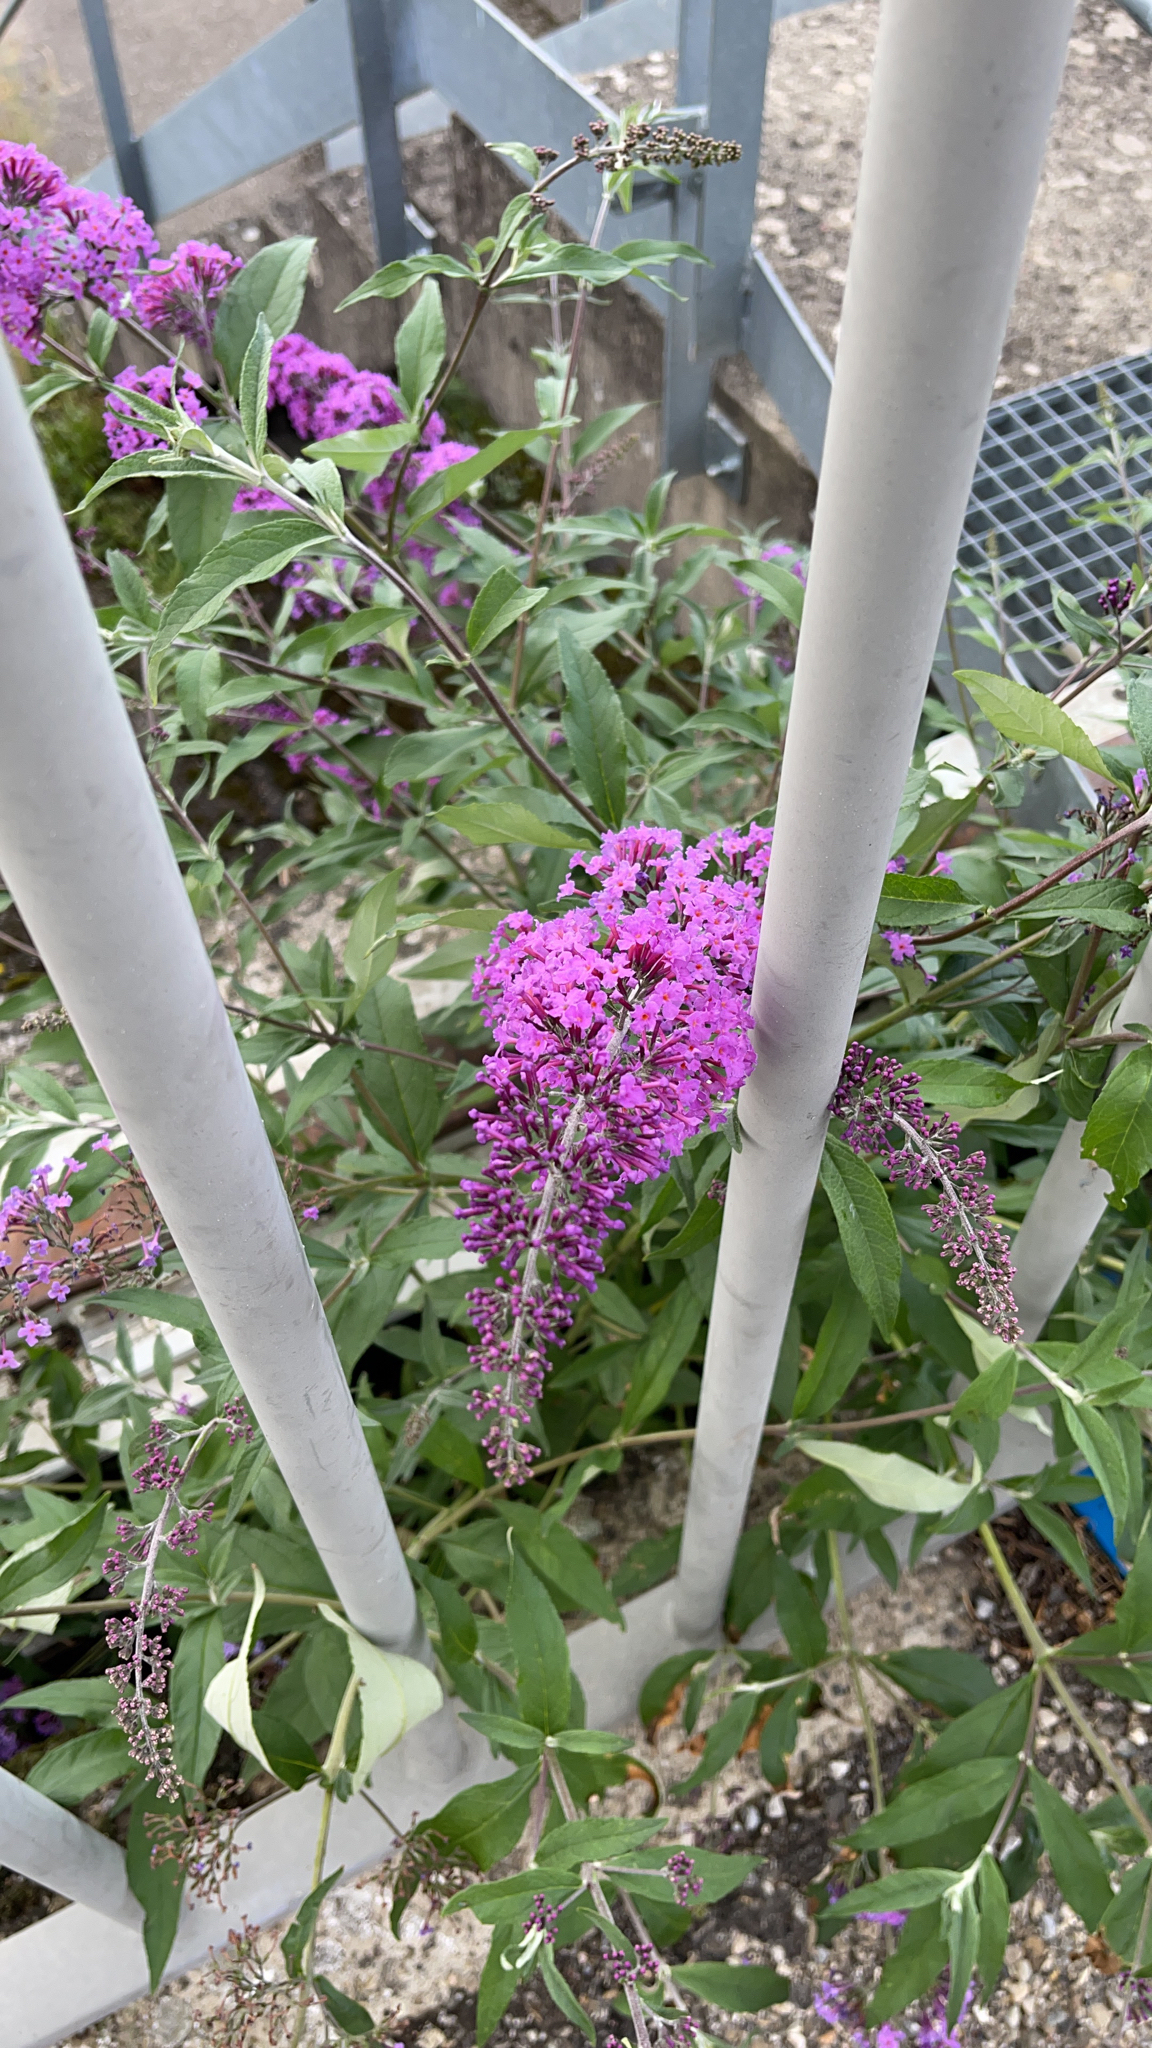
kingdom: Plantae
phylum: Tracheophyta
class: Magnoliopsida
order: Lamiales
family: Scrophulariaceae
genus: Buddleja
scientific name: Buddleja davidii
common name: Butterfly-bush
